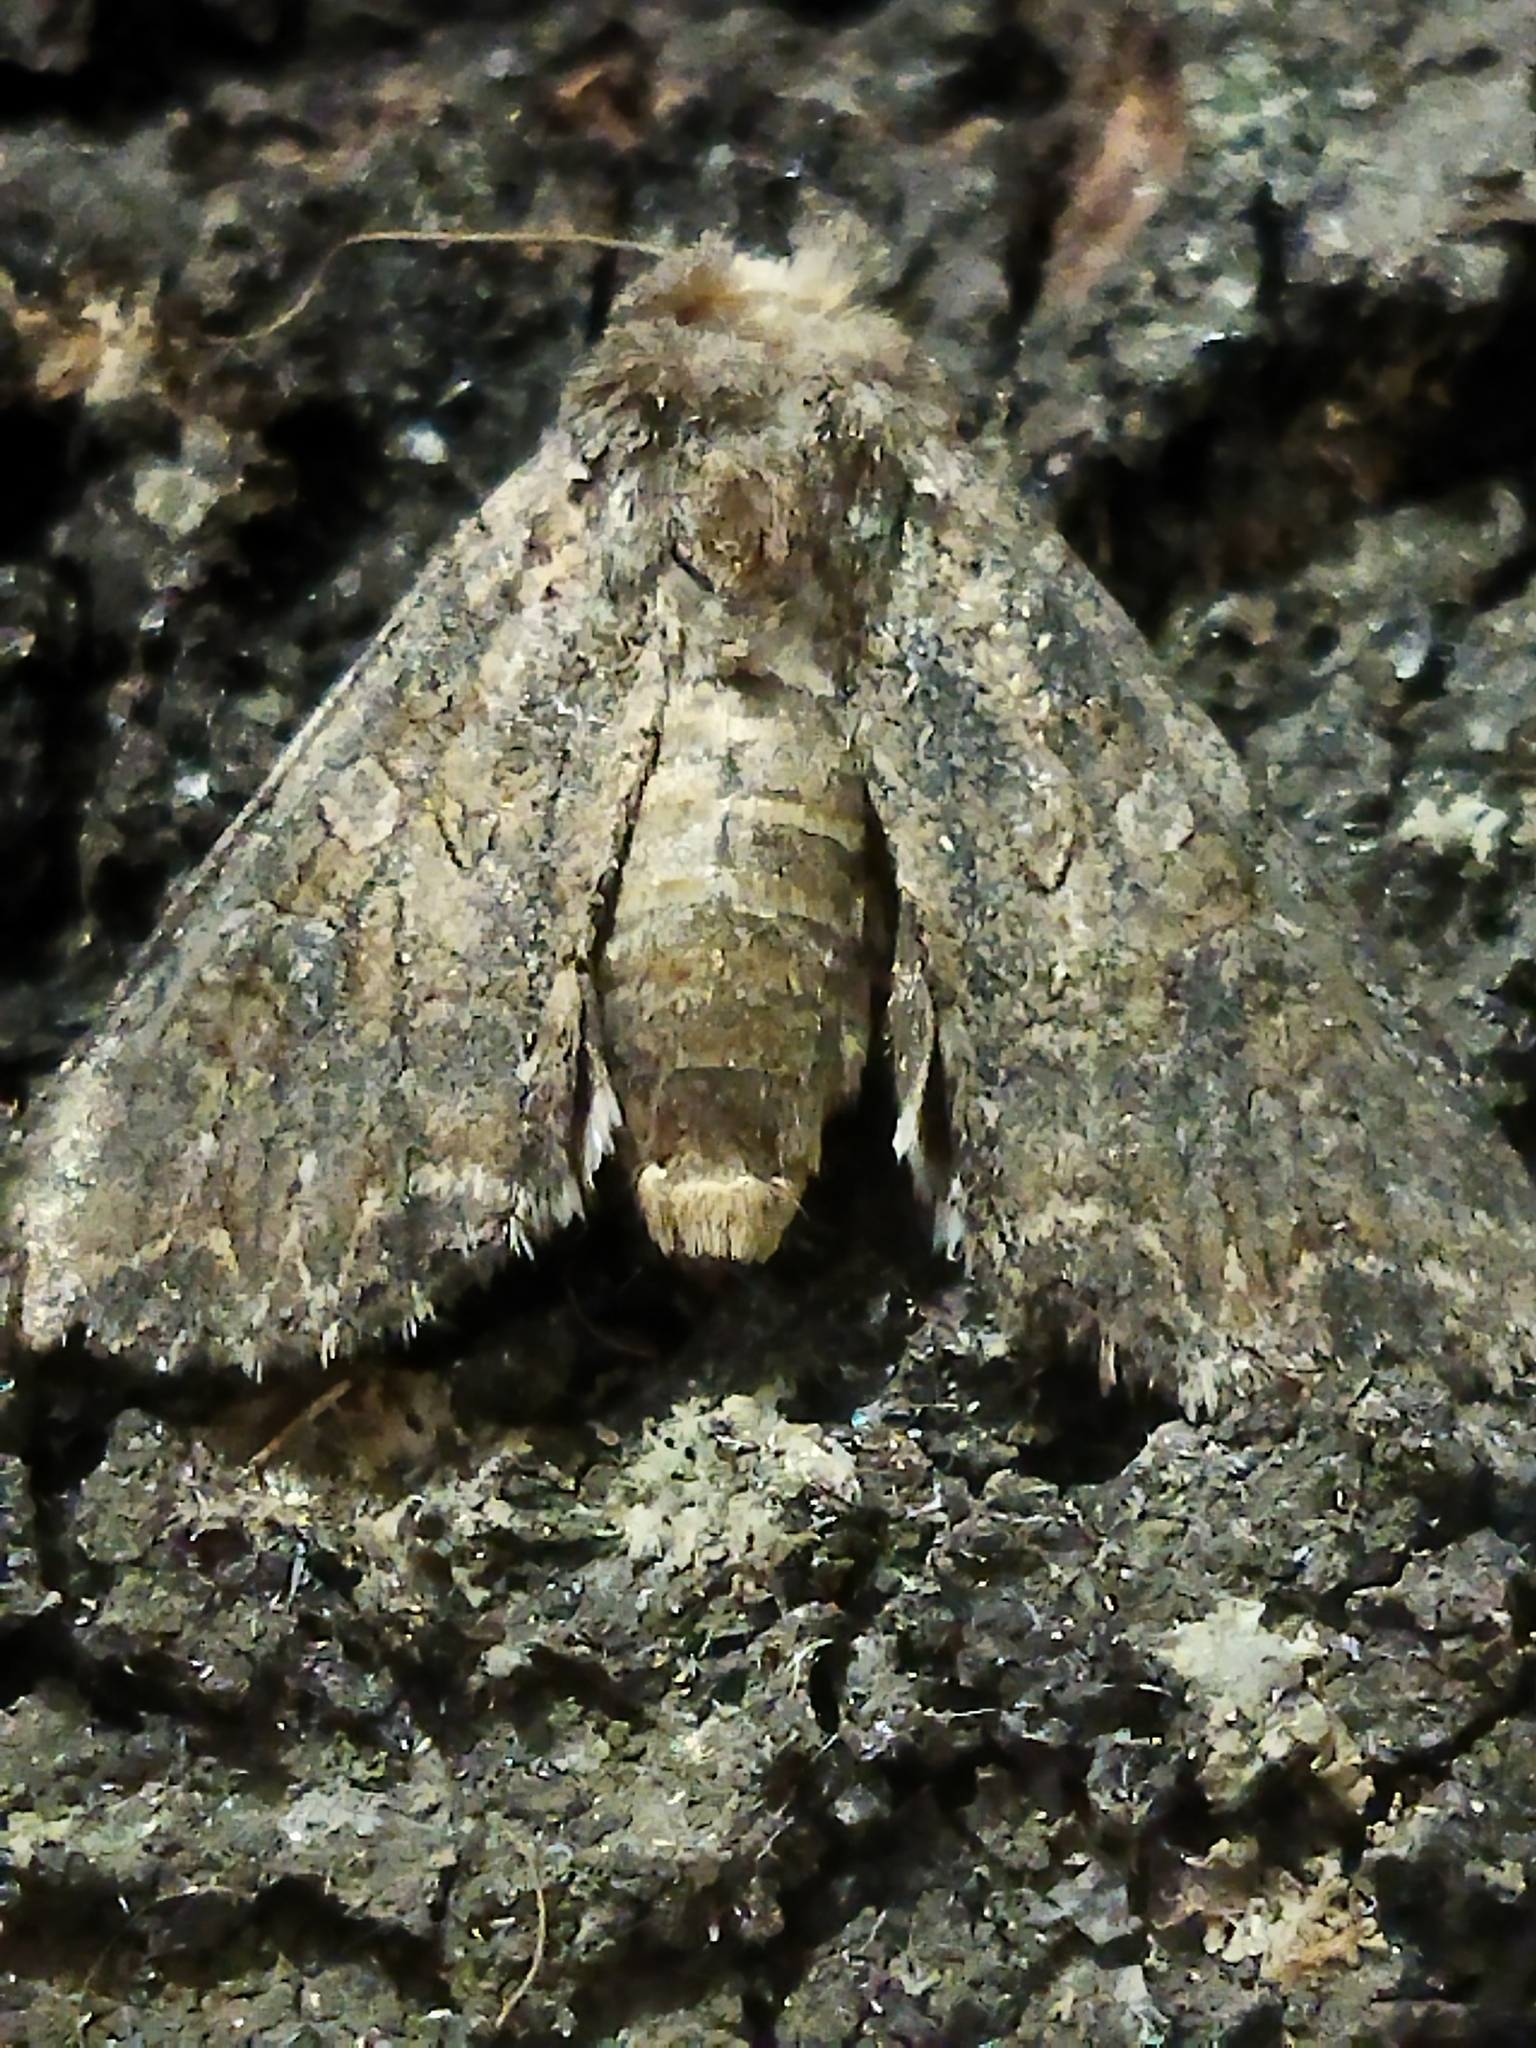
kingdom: Animalia
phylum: Arthropoda
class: Insecta
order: Lepidoptera
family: Noctuidae
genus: Anarta
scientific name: Anarta trifolii
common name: Clover cutworm moth
